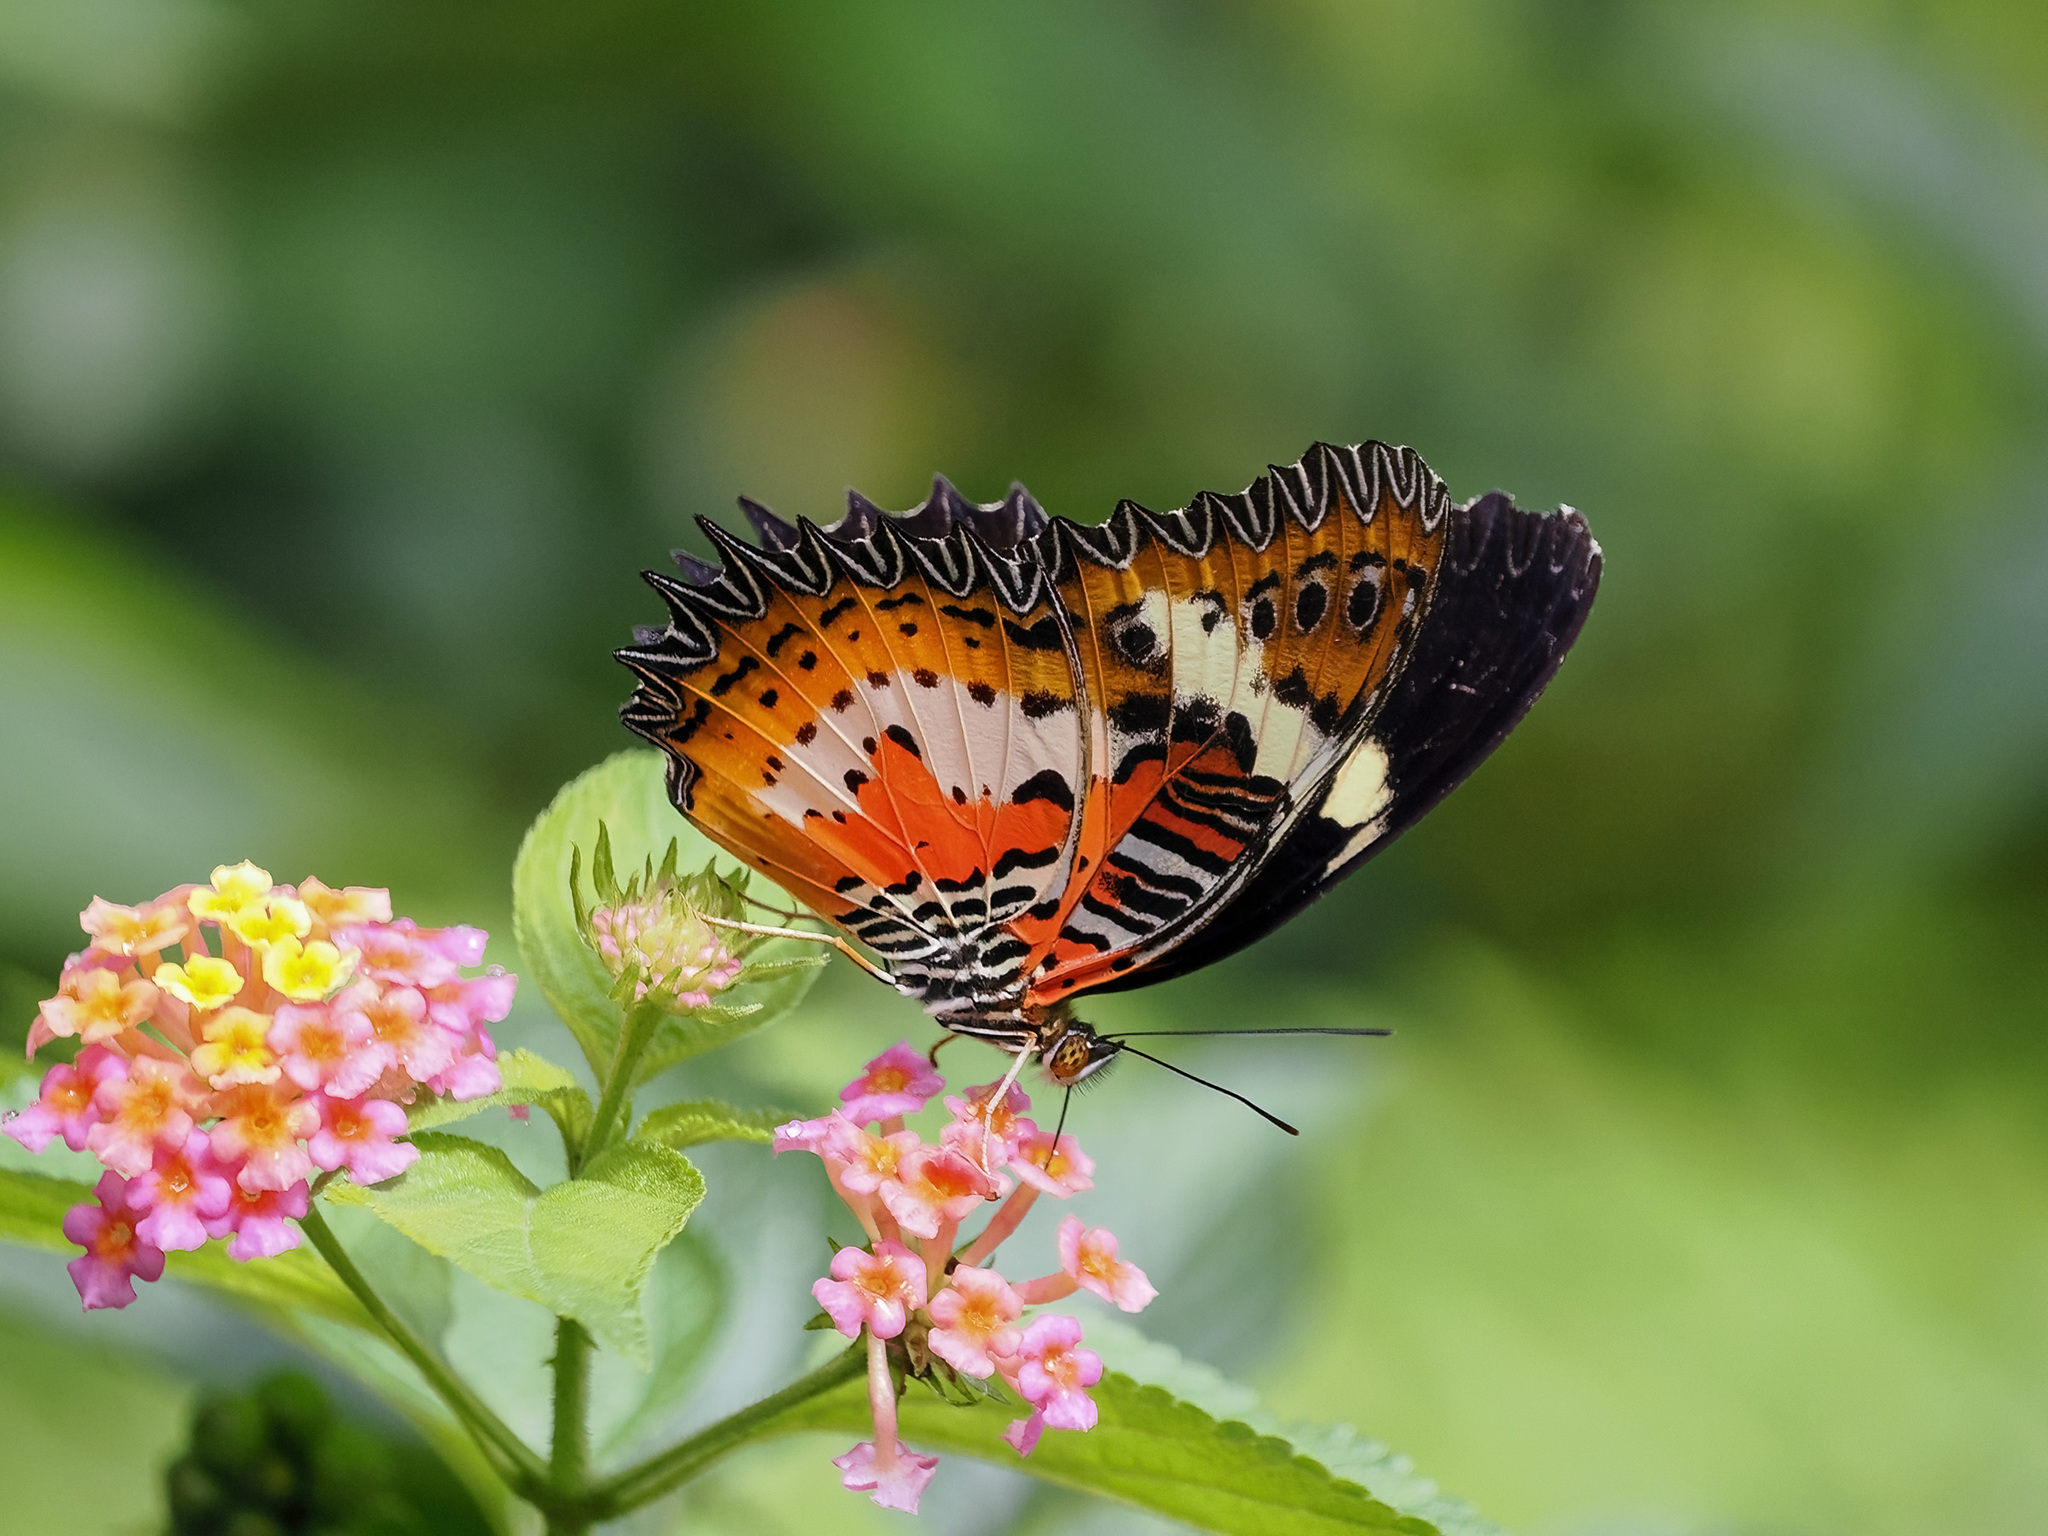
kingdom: Animalia
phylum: Arthropoda
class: Insecta
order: Lepidoptera
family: Nymphalidae
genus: Cethosia
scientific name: Cethosia hypsea
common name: Malayan lacewing butterfly
